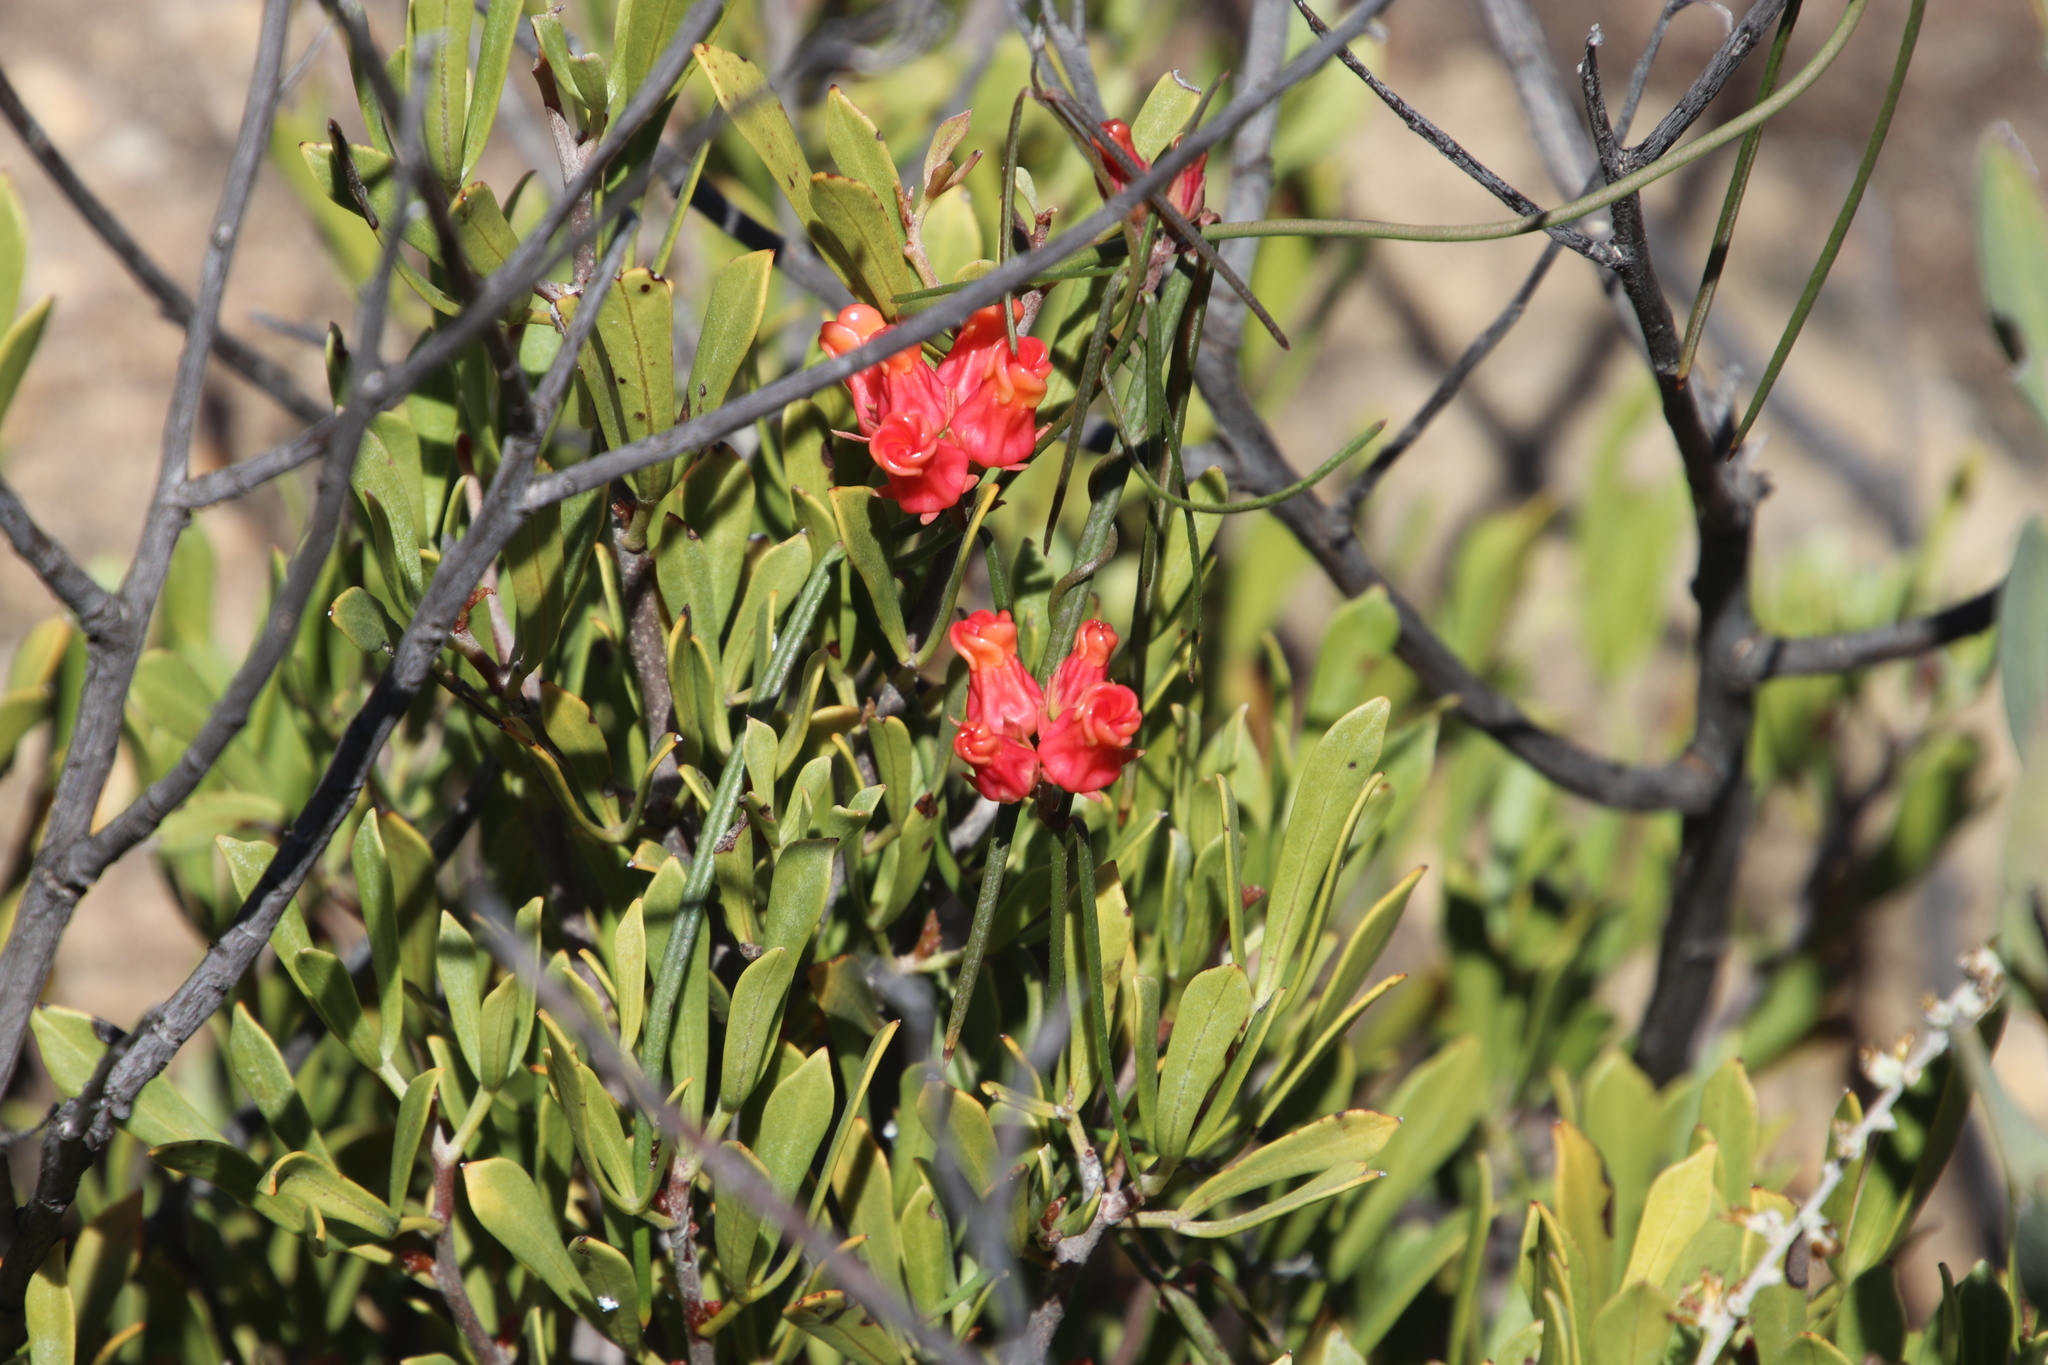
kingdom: Plantae
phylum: Tracheophyta
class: Magnoliopsida
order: Gentianales
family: Apocynaceae
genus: Microloma
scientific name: Microloma tenuifolium
